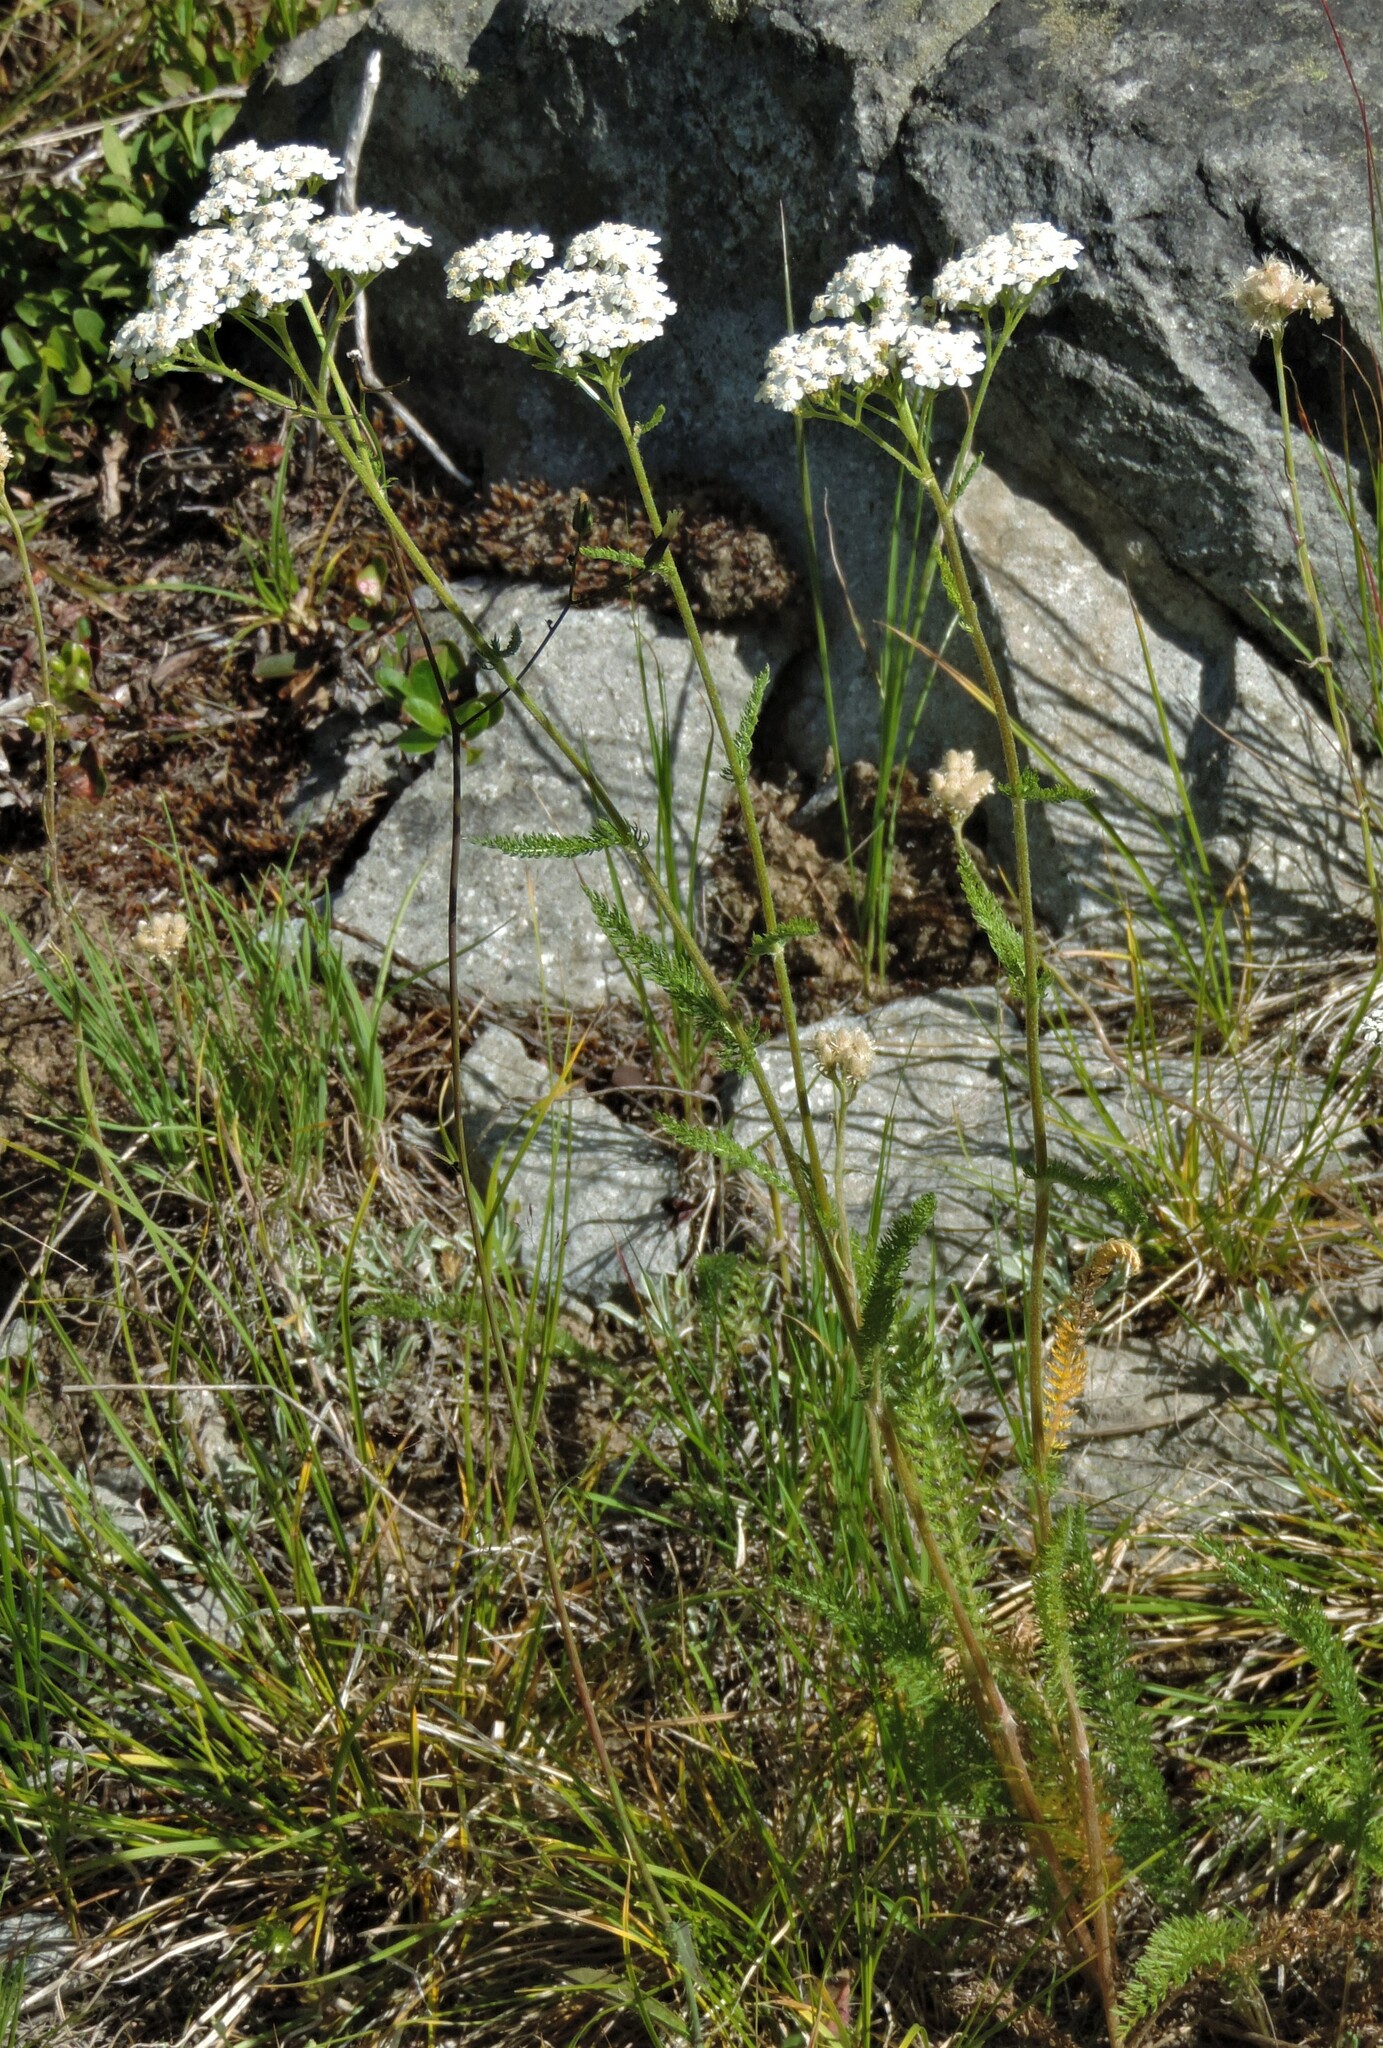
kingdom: Plantae
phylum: Tracheophyta
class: Magnoliopsida
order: Asterales
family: Asteraceae
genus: Achillea
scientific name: Achillea millefolium
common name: Yarrow
